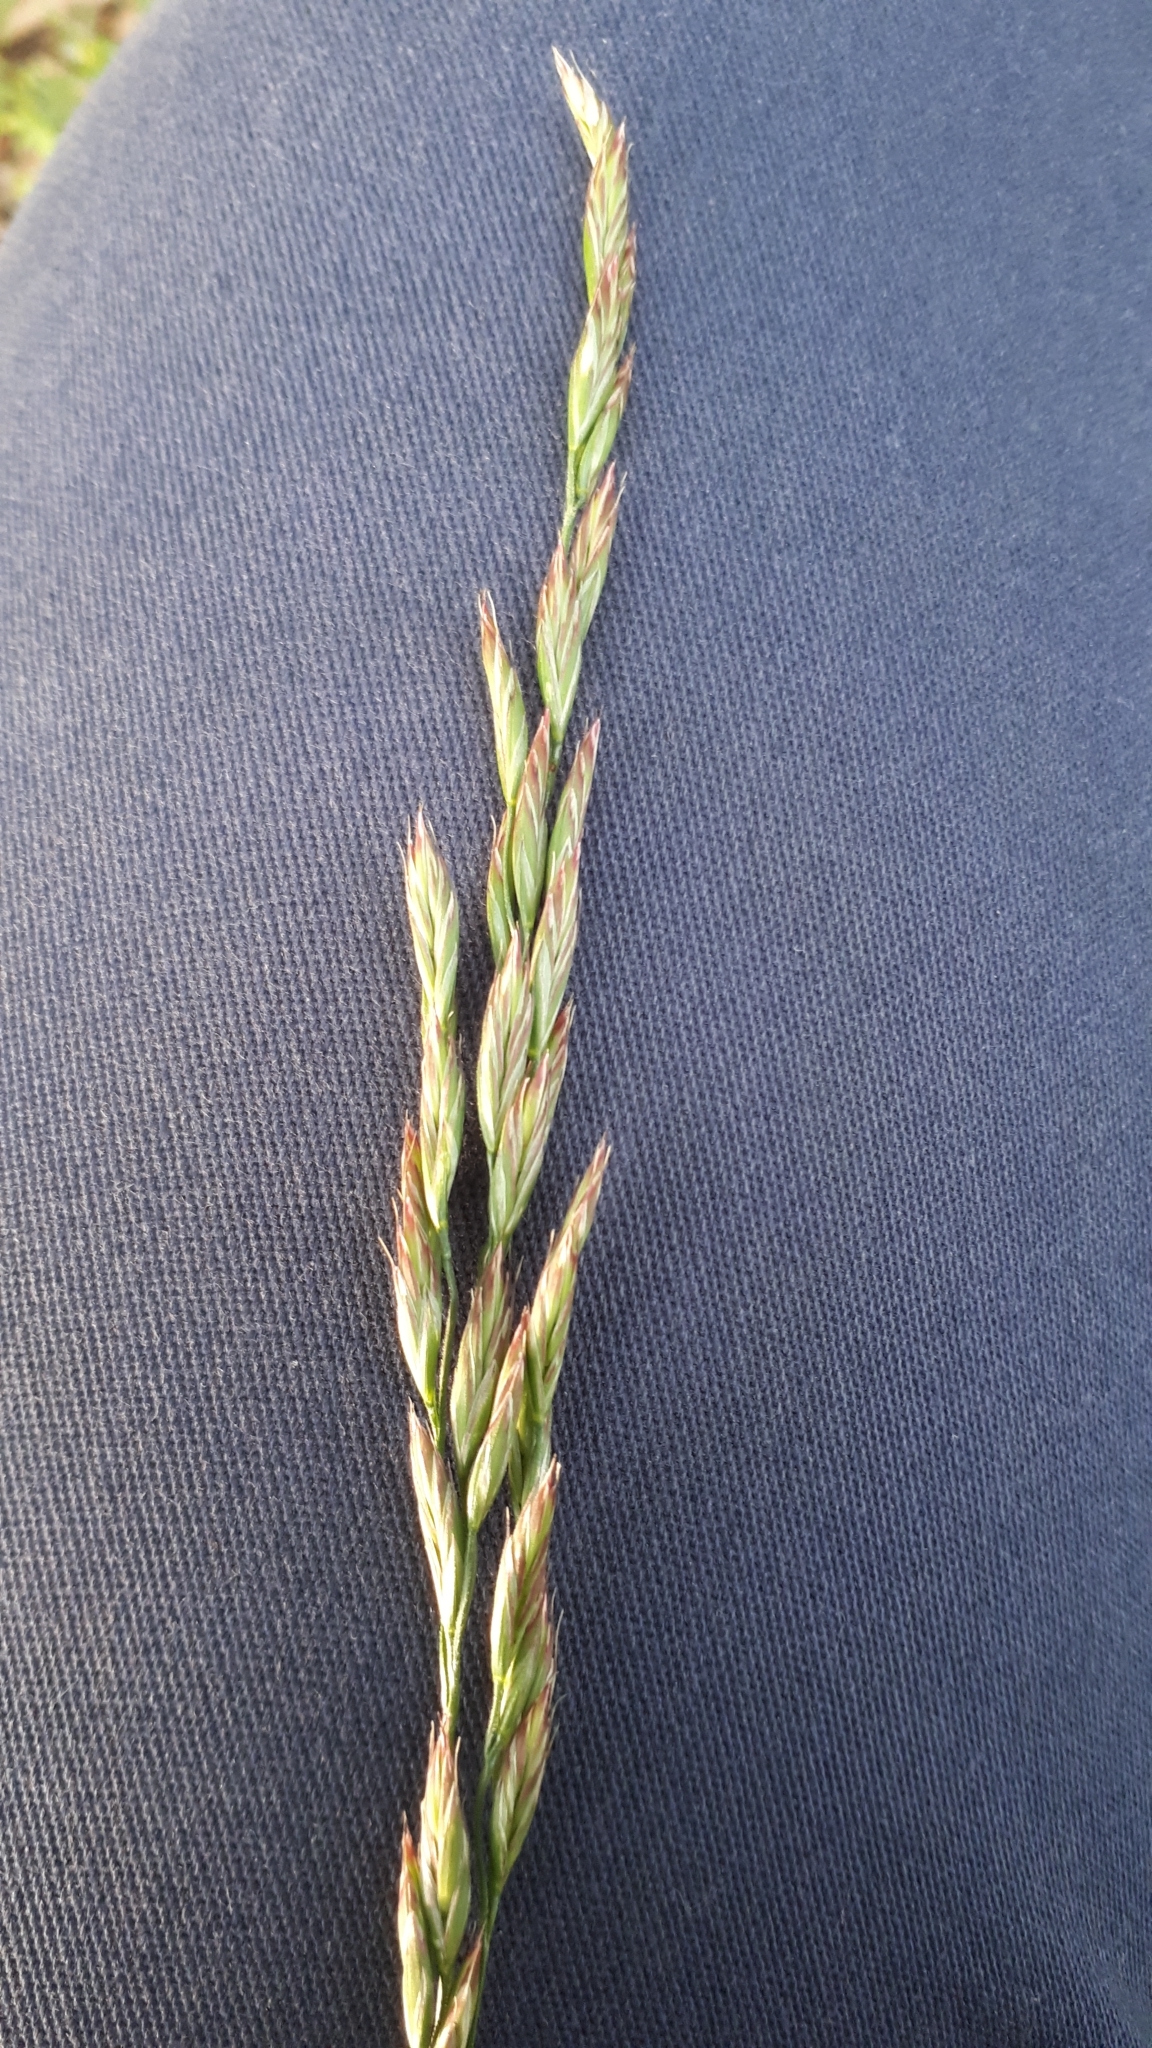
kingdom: Plantae
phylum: Tracheophyta
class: Liliopsida
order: Poales
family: Poaceae
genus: Lolium
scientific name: Lolium arundinaceum
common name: Reed fescue
